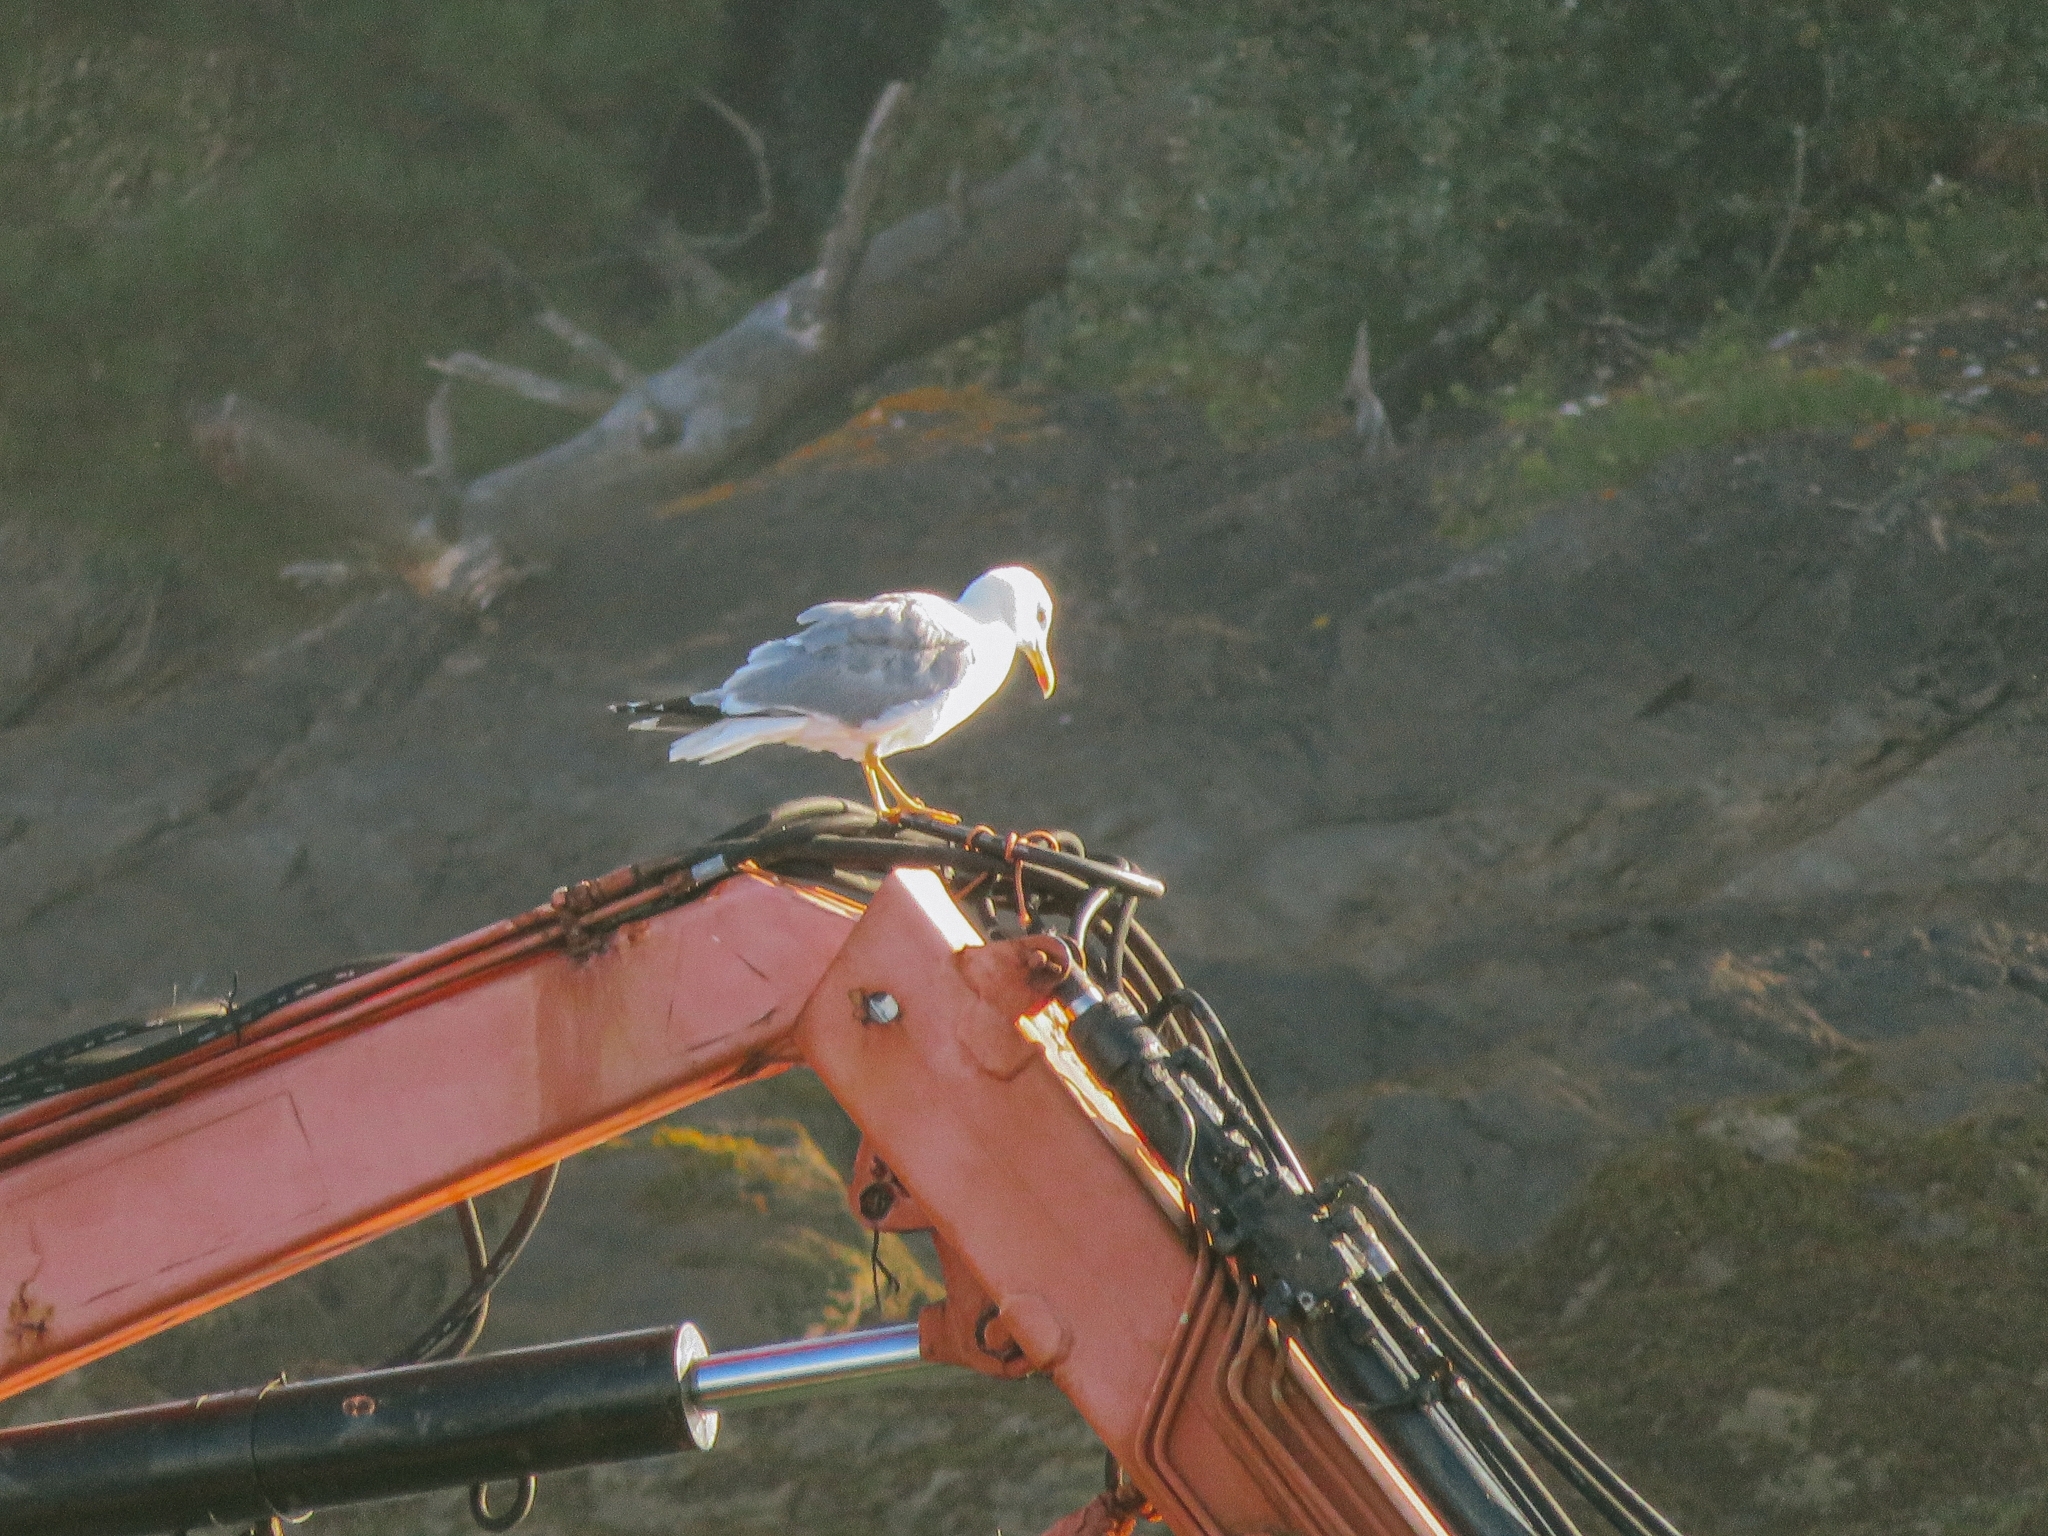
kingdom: Animalia
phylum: Chordata
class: Aves
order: Charadriiformes
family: Laridae
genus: Larus
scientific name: Larus michahellis
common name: Yellow-legged gull
